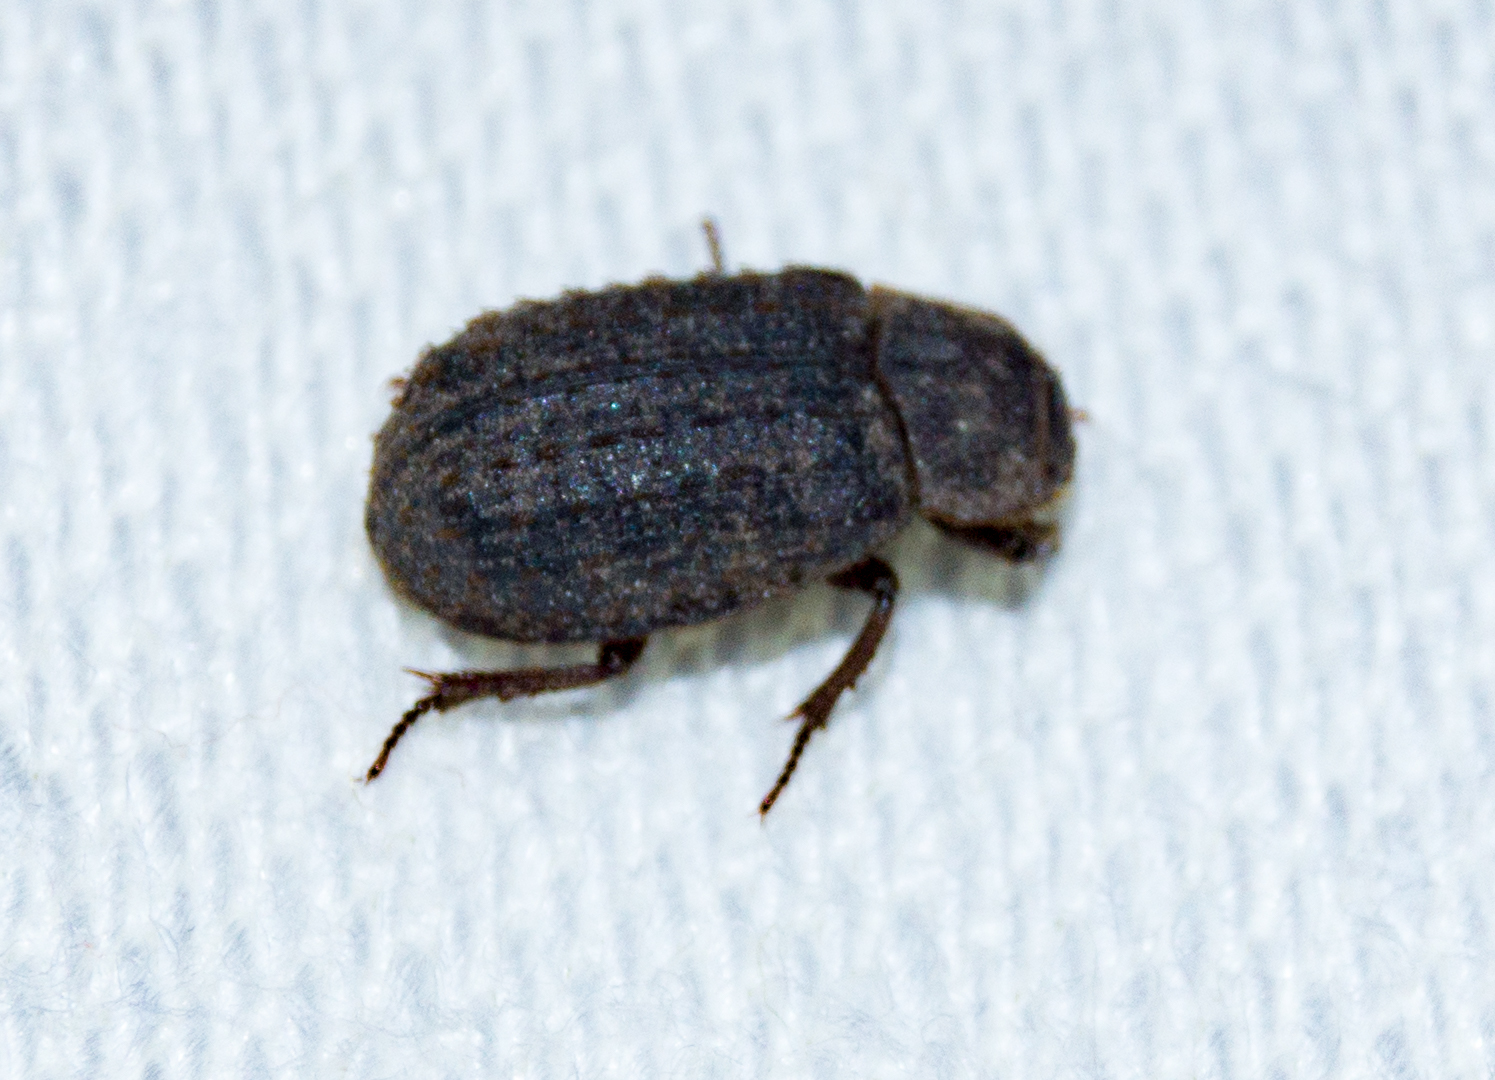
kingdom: Animalia
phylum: Arthropoda
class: Insecta
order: Coleoptera
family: Trogidae
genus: Trox
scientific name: Trox scaber
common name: Hide beetle
